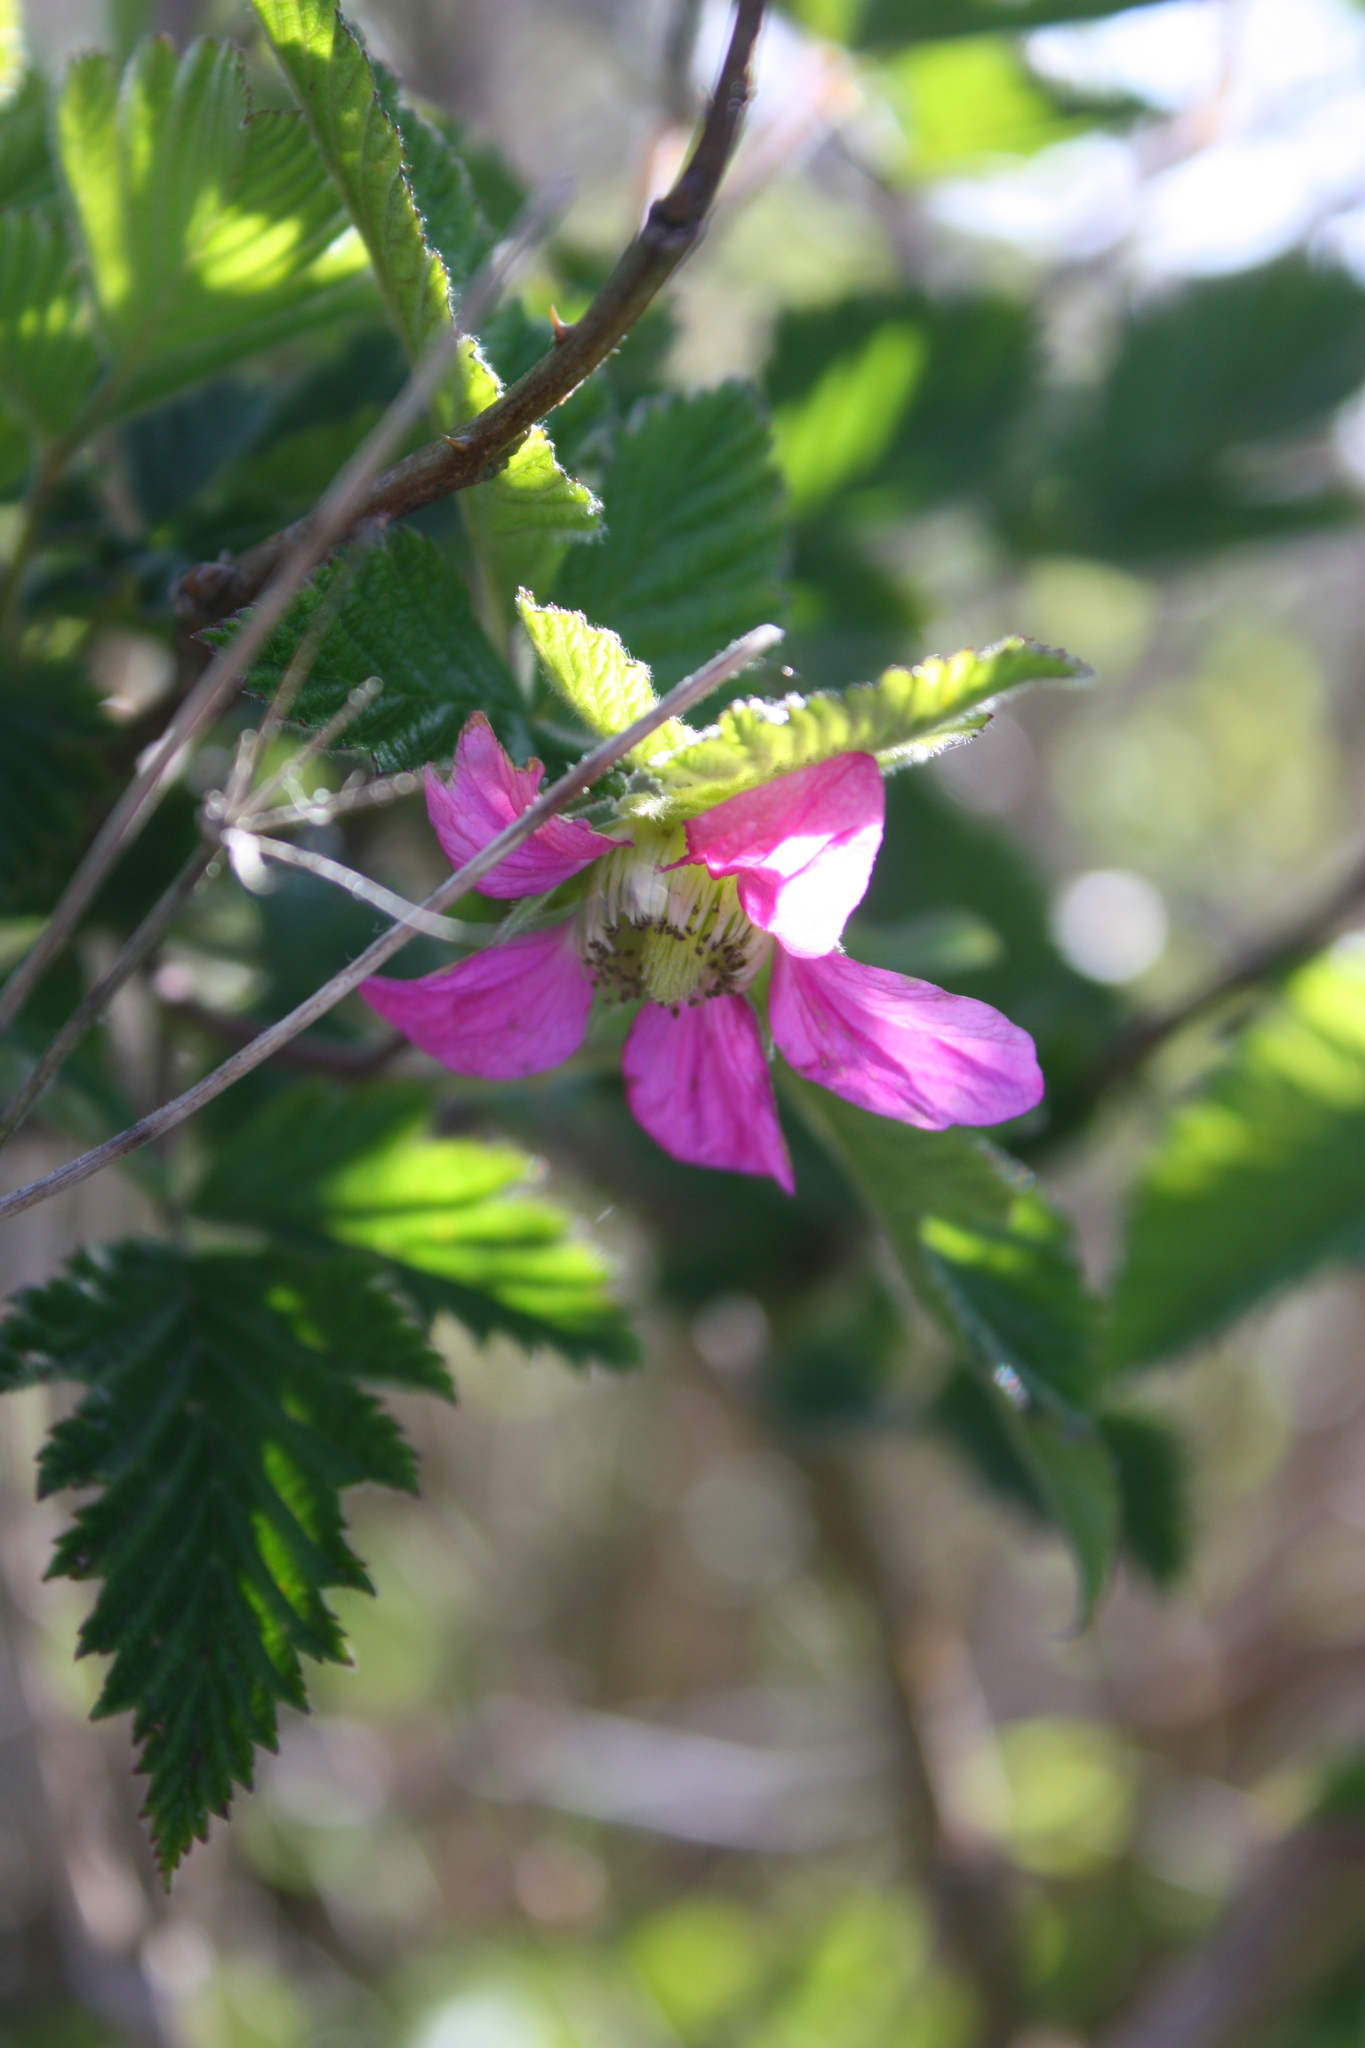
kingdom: Plantae
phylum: Tracheophyta
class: Magnoliopsida
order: Rosales
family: Rosaceae
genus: Rubus
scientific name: Rubus spectabilis
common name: Salmonberry
